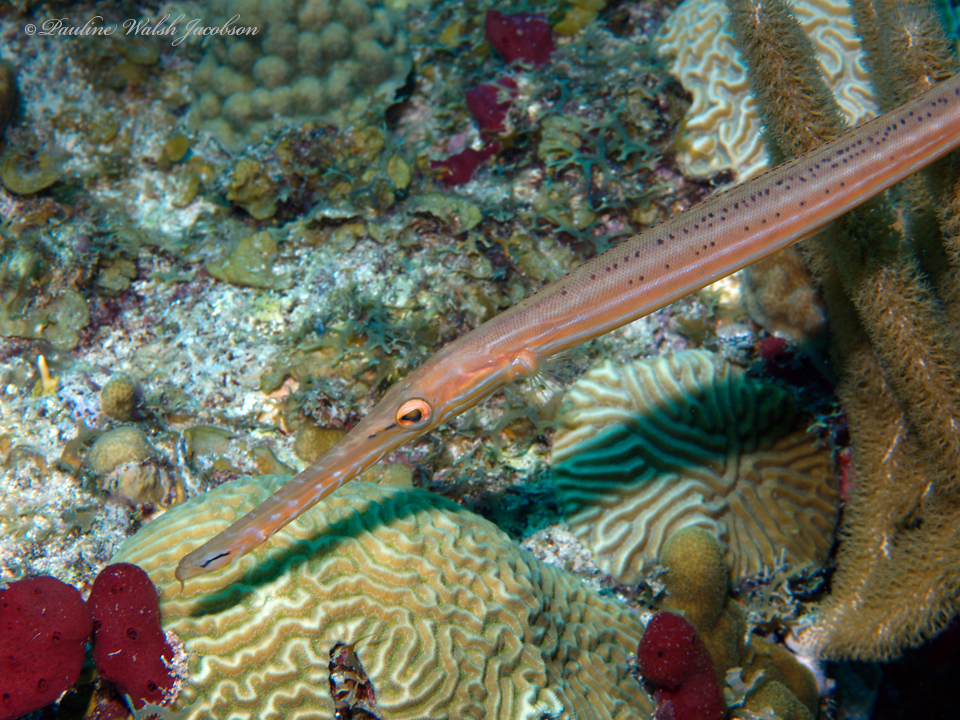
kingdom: Animalia
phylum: Chordata
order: Syngnathiformes
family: Aulostomidae
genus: Aulostomus
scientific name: Aulostomus maculatus
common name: West atlantic trumpetfish
